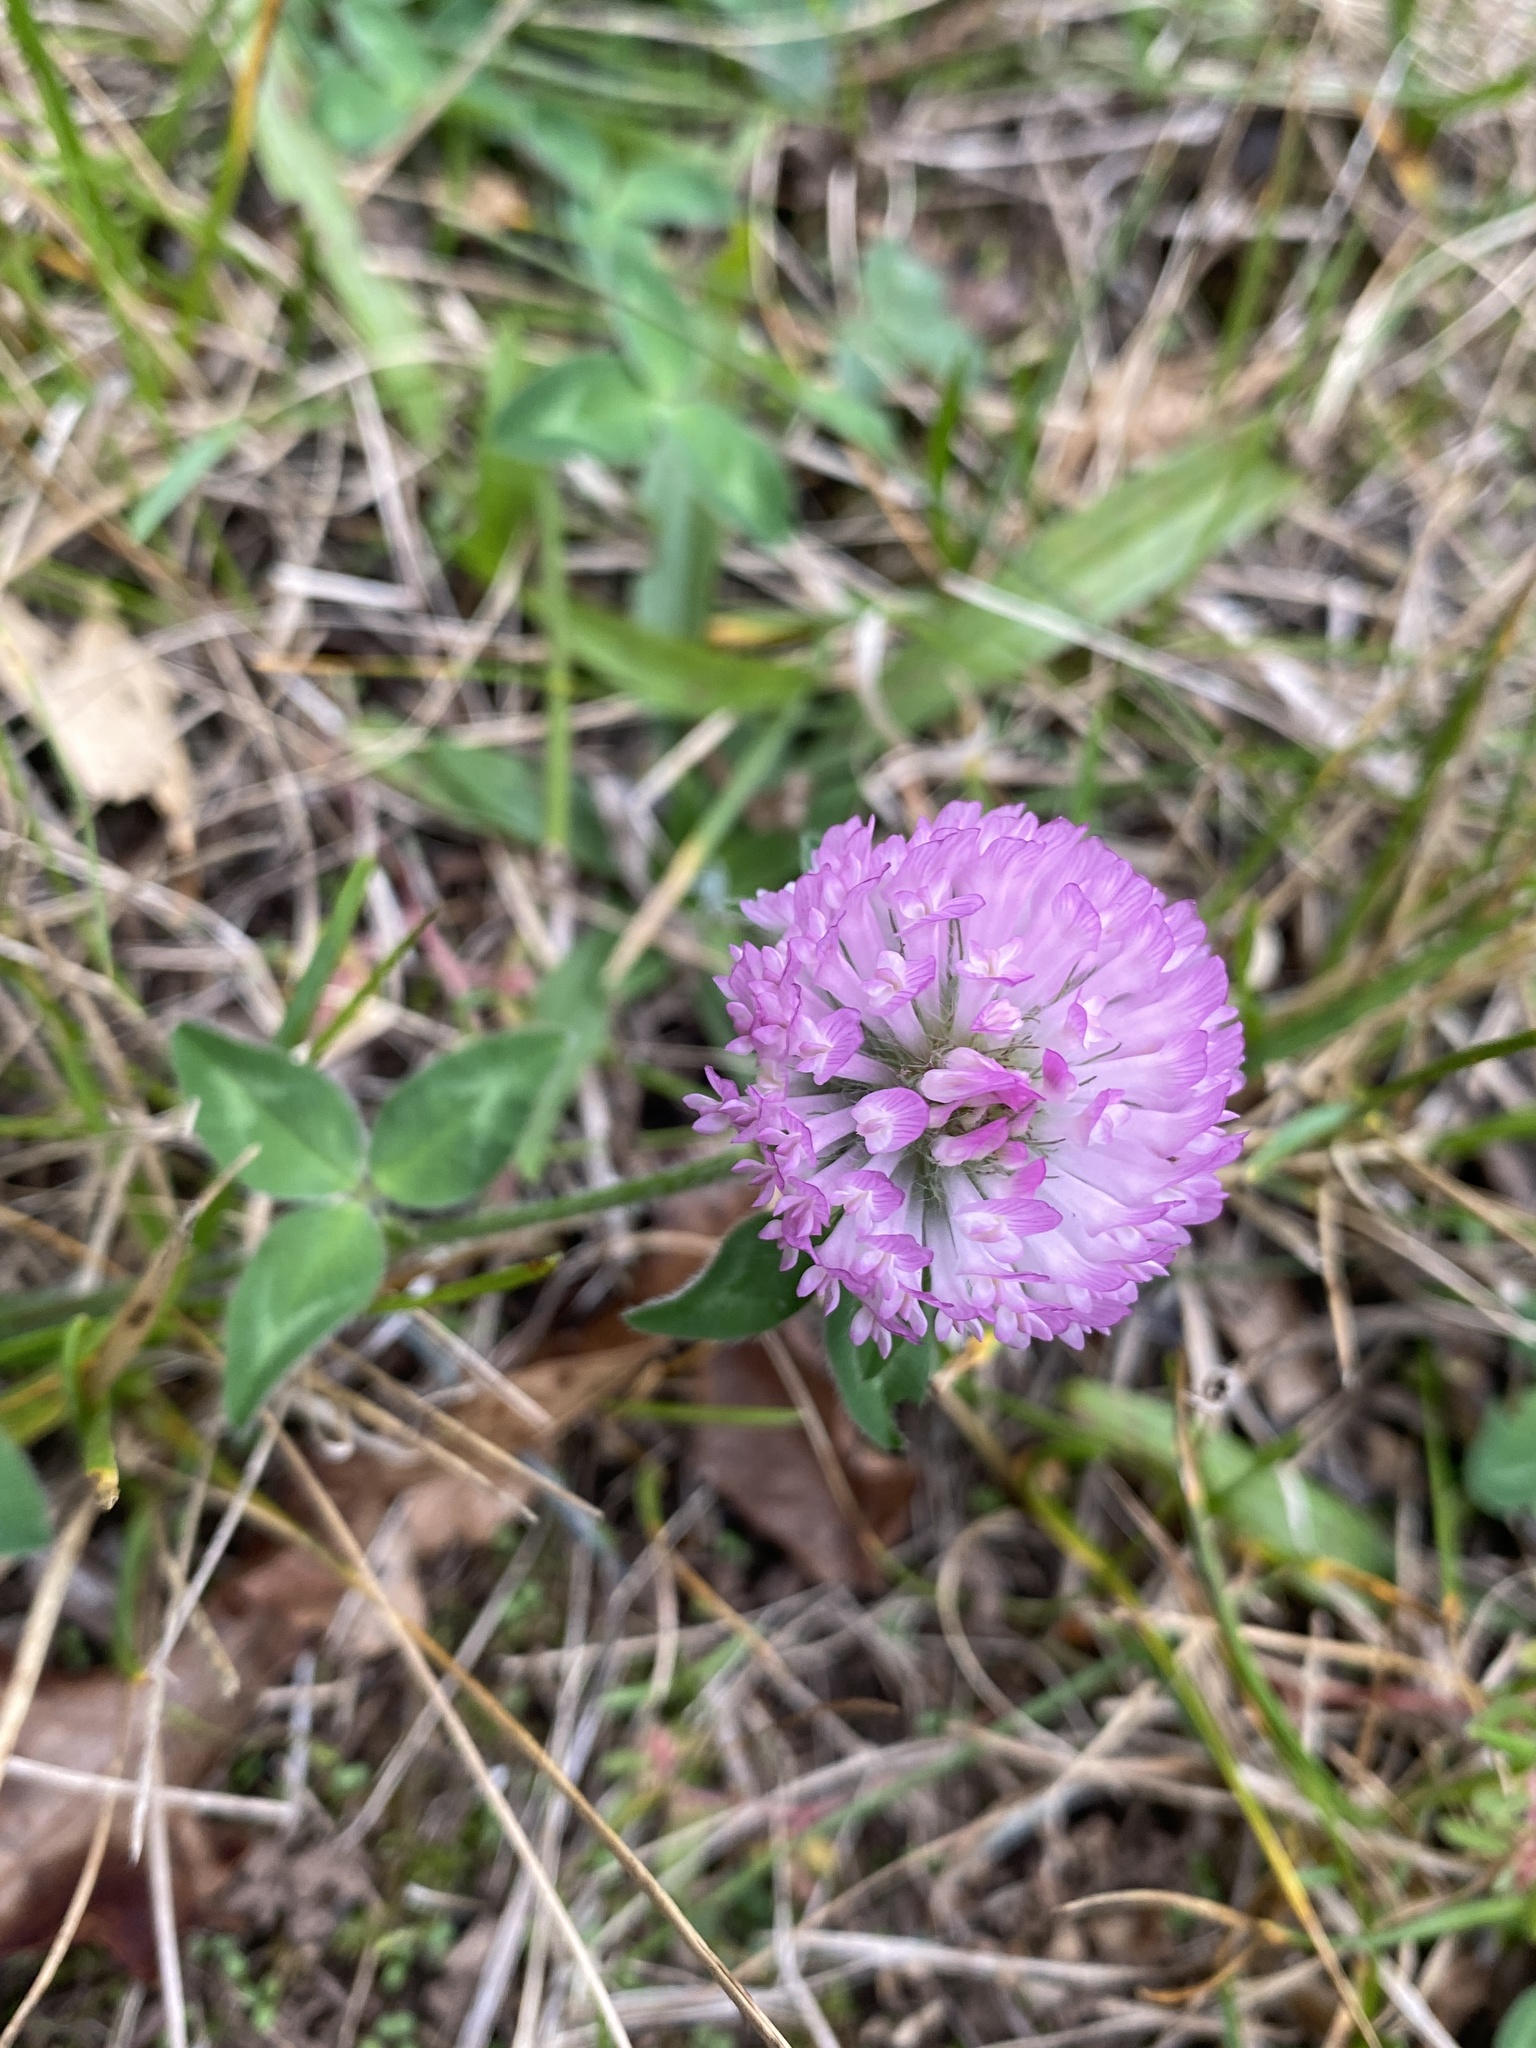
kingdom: Plantae
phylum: Tracheophyta
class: Magnoliopsida
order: Fabales
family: Fabaceae
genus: Trifolium
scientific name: Trifolium pratense
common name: Red clover
